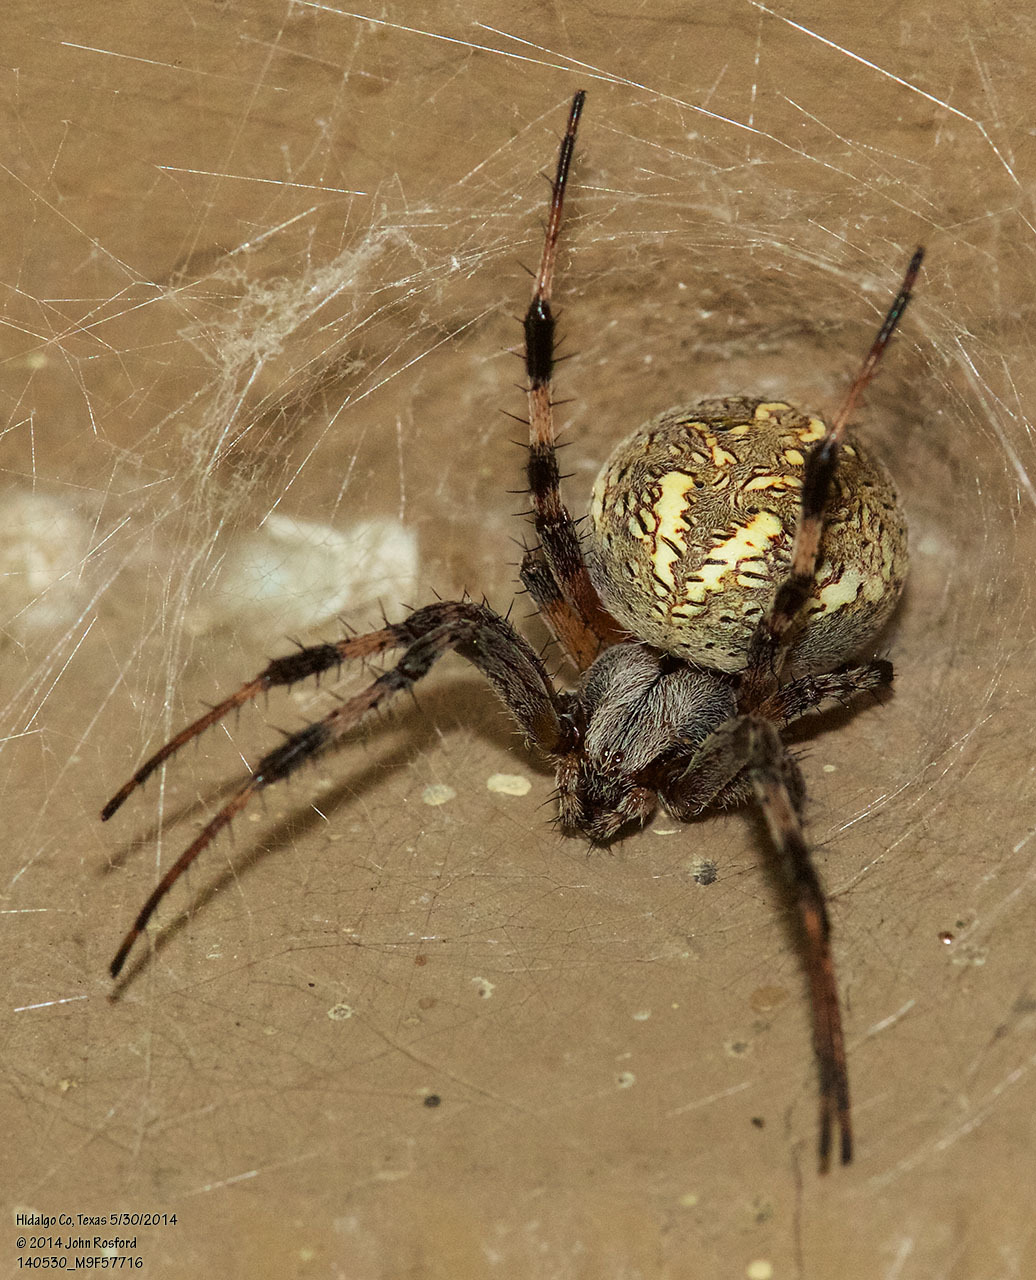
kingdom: Animalia
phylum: Arthropoda
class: Arachnida
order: Araneae
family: Araneidae
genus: Neoscona
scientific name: Neoscona oaxacensis
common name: Orb weavers
